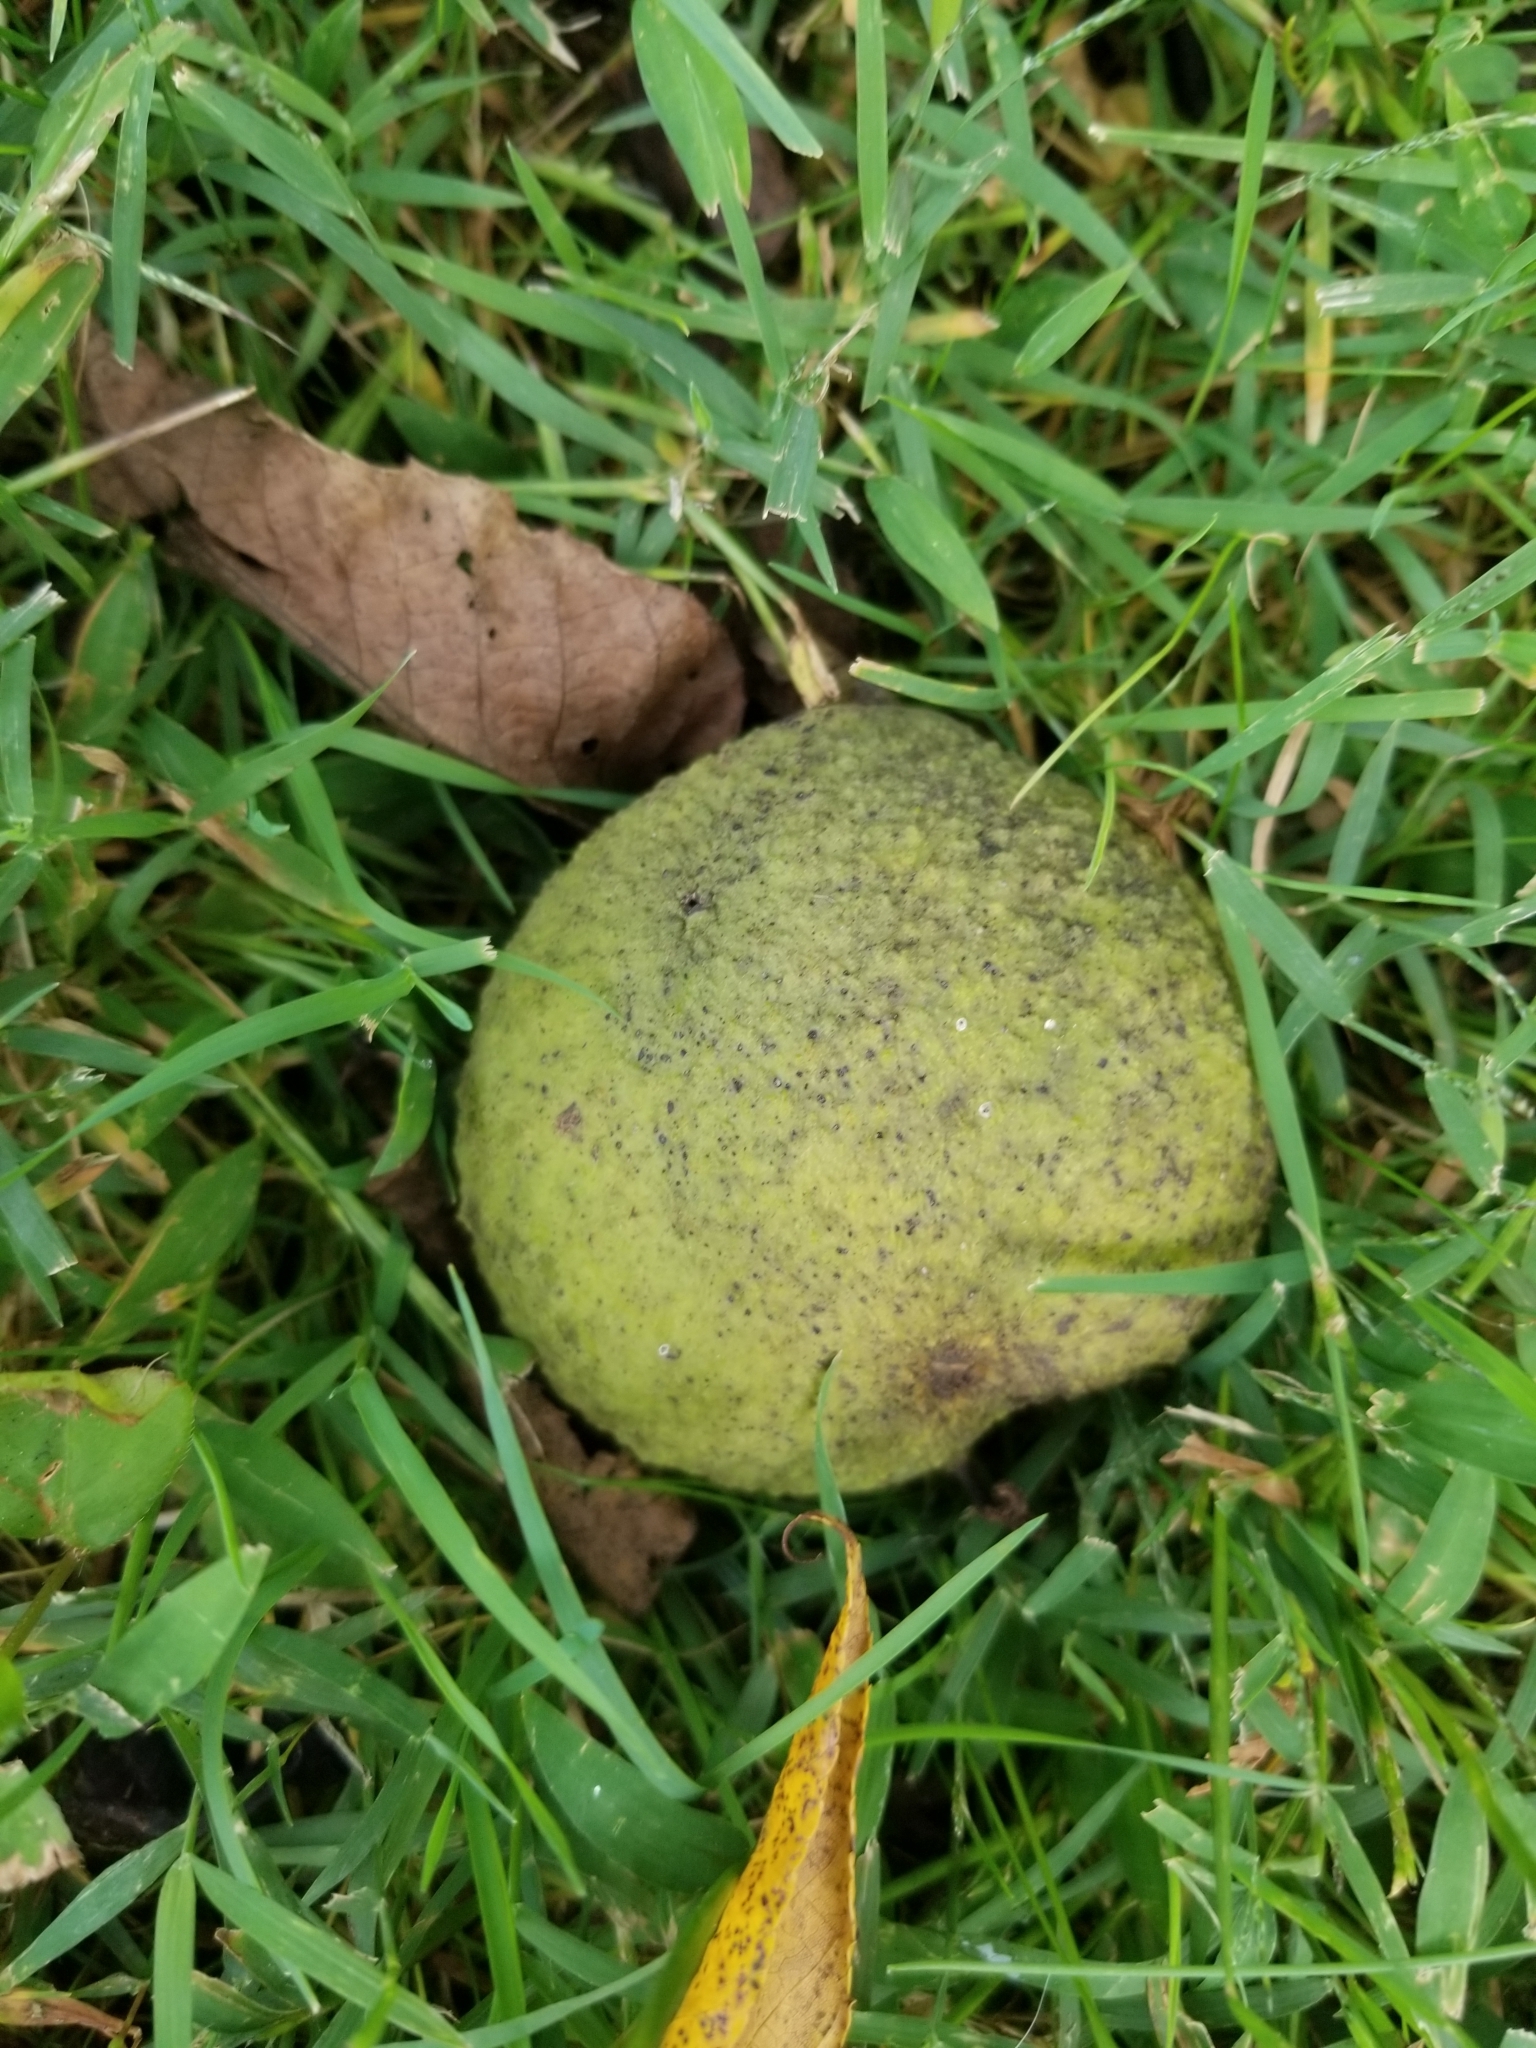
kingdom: Plantae
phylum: Tracheophyta
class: Magnoliopsida
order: Fagales
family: Juglandaceae
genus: Juglans
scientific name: Juglans nigra
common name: Black walnut
